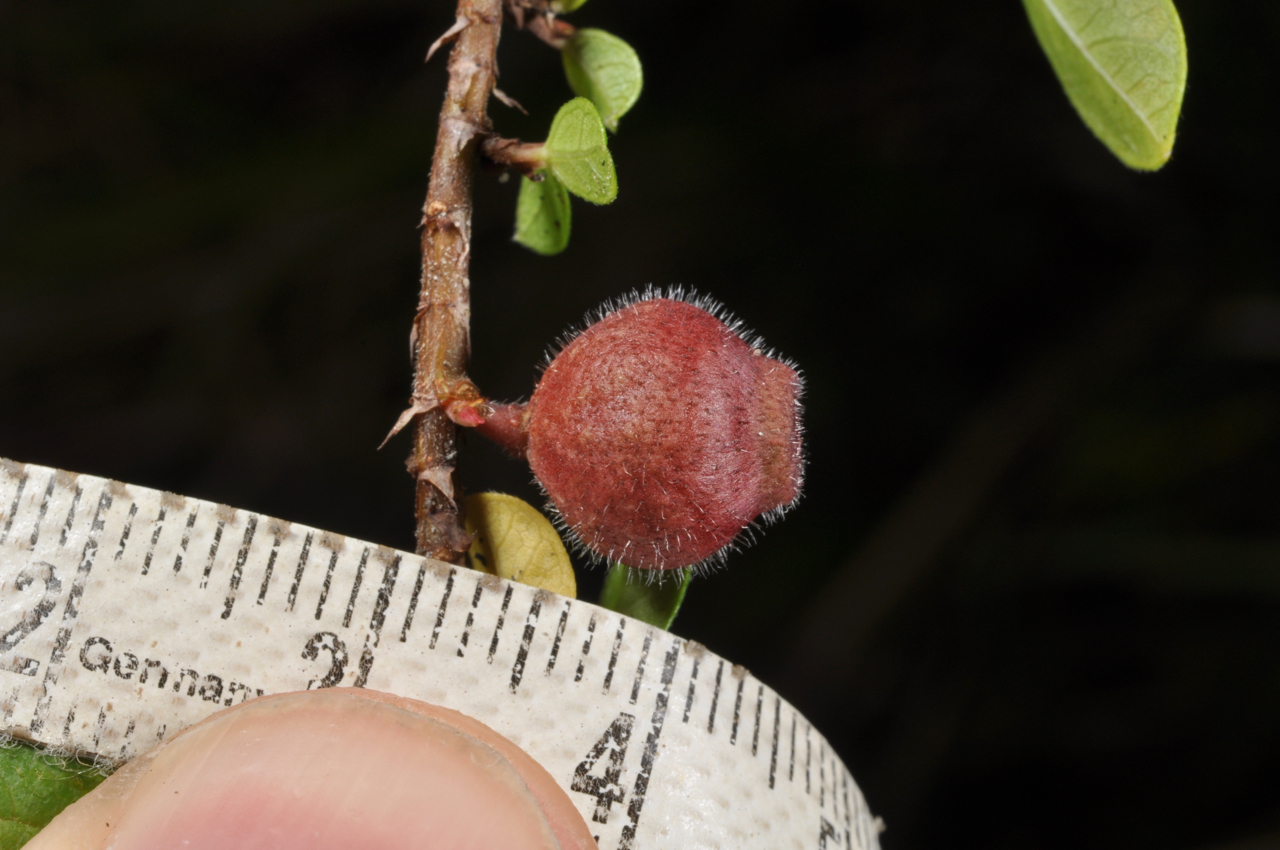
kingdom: Plantae
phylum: Tracheophyta
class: Magnoliopsida
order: Rosales
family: Moraceae
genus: Ficus
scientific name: Ficus vaccinioides
